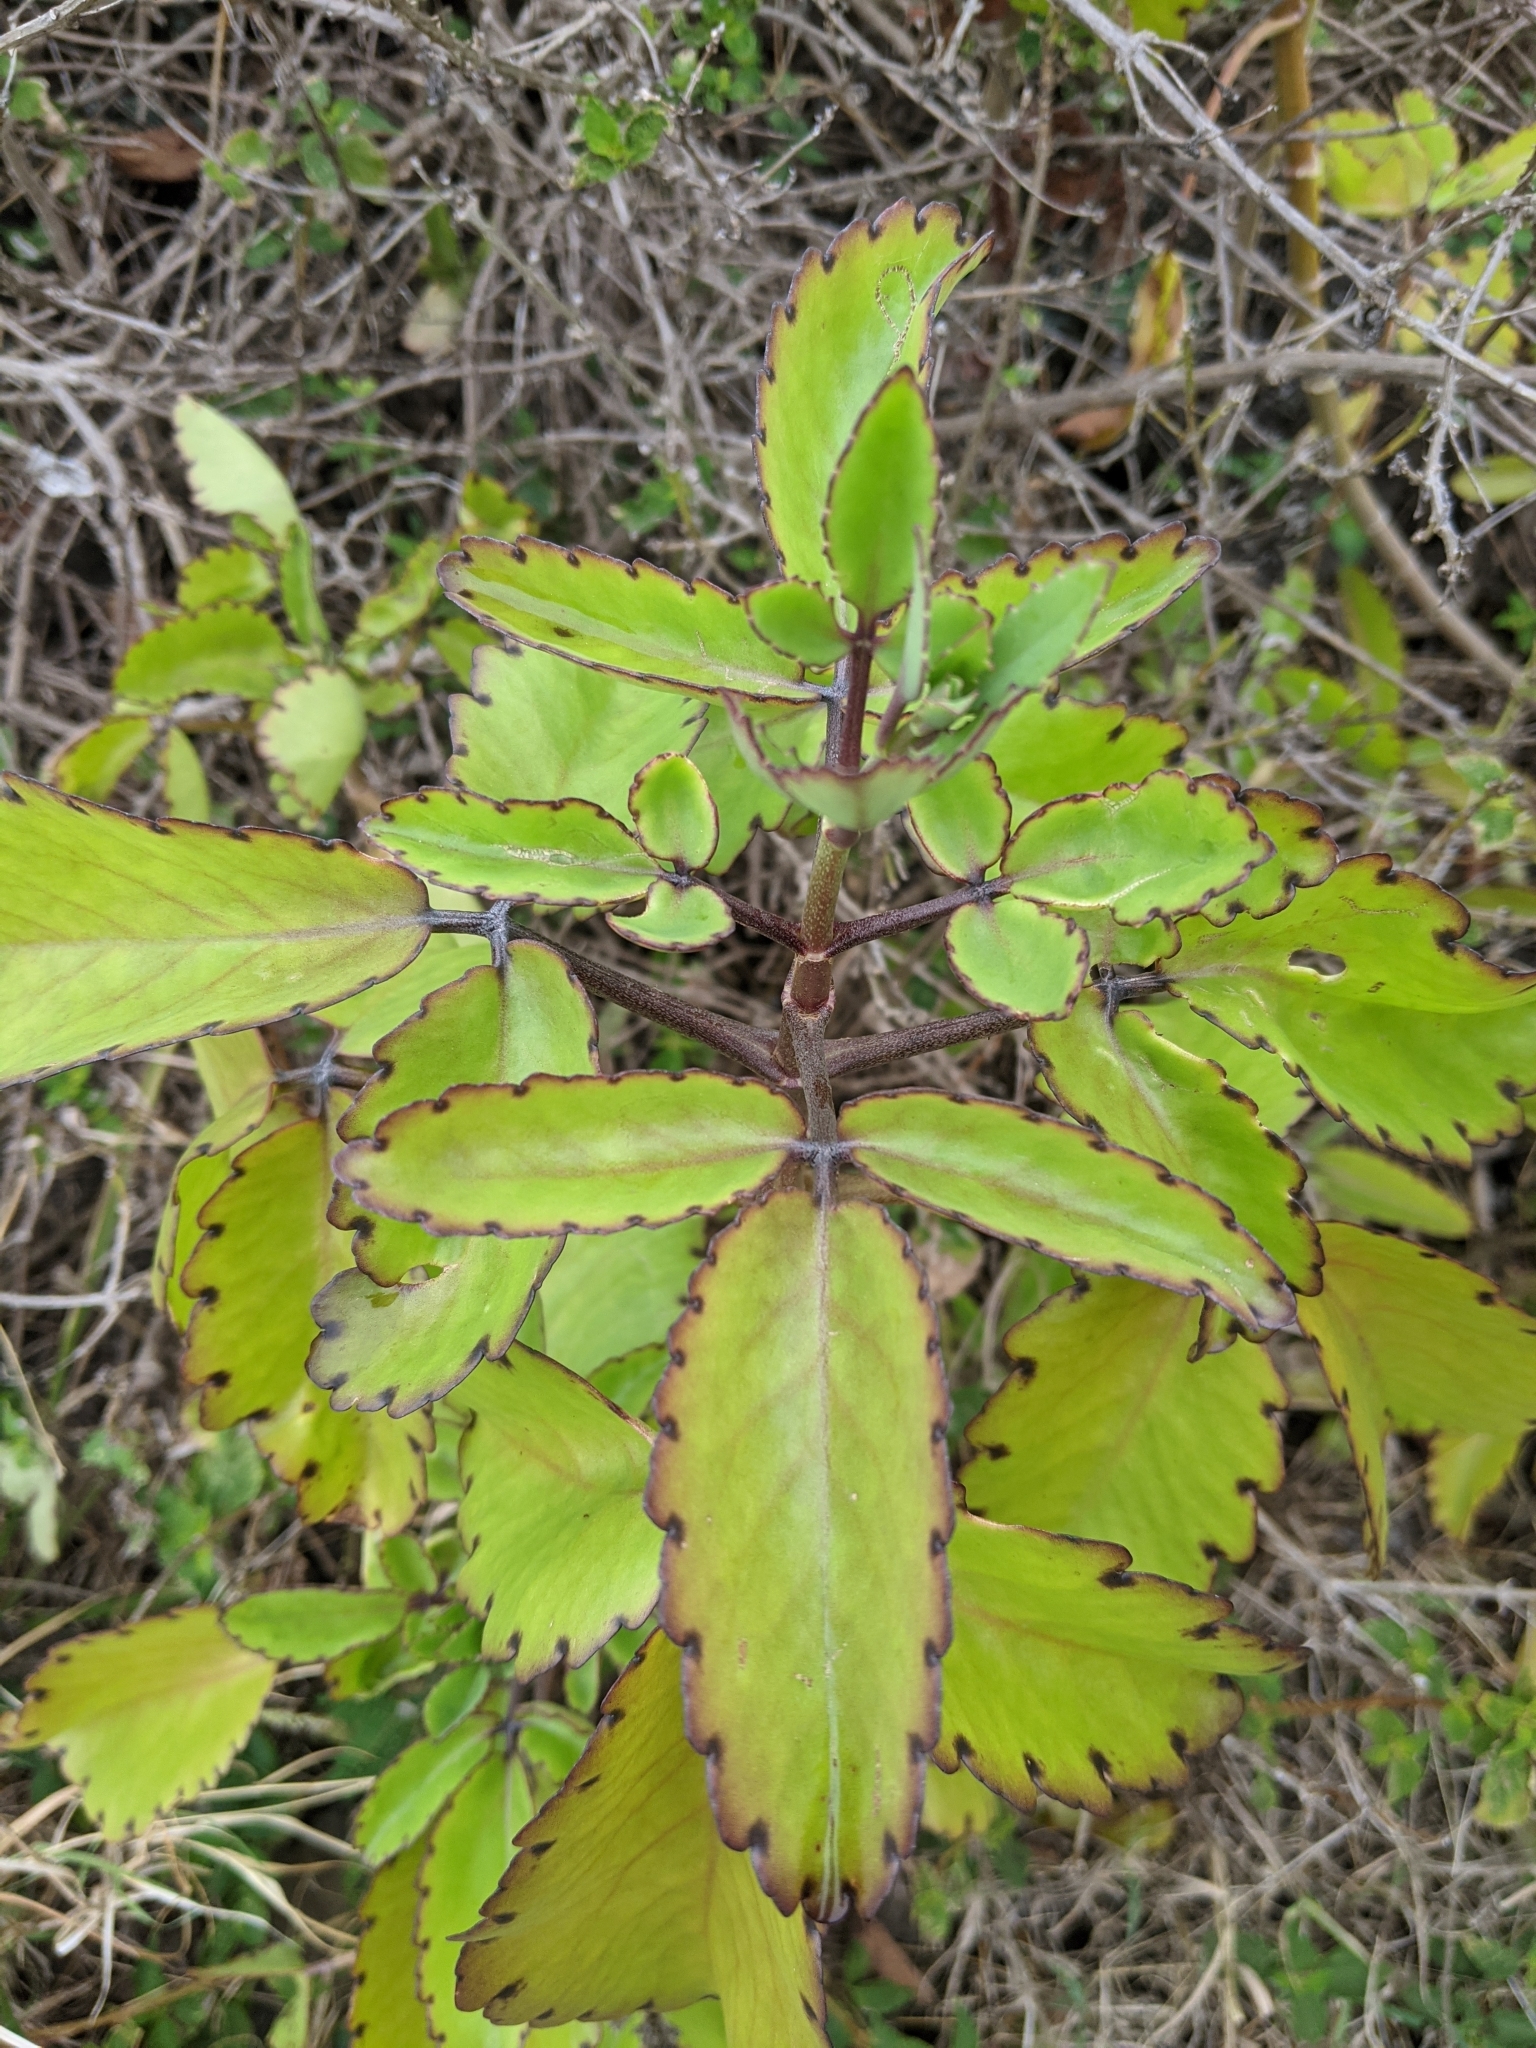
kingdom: Plantae
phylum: Tracheophyta
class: Magnoliopsida
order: Saxifragales
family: Crassulaceae
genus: Kalanchoe
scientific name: Kalanchoe pinnata
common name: Cathedral bells
